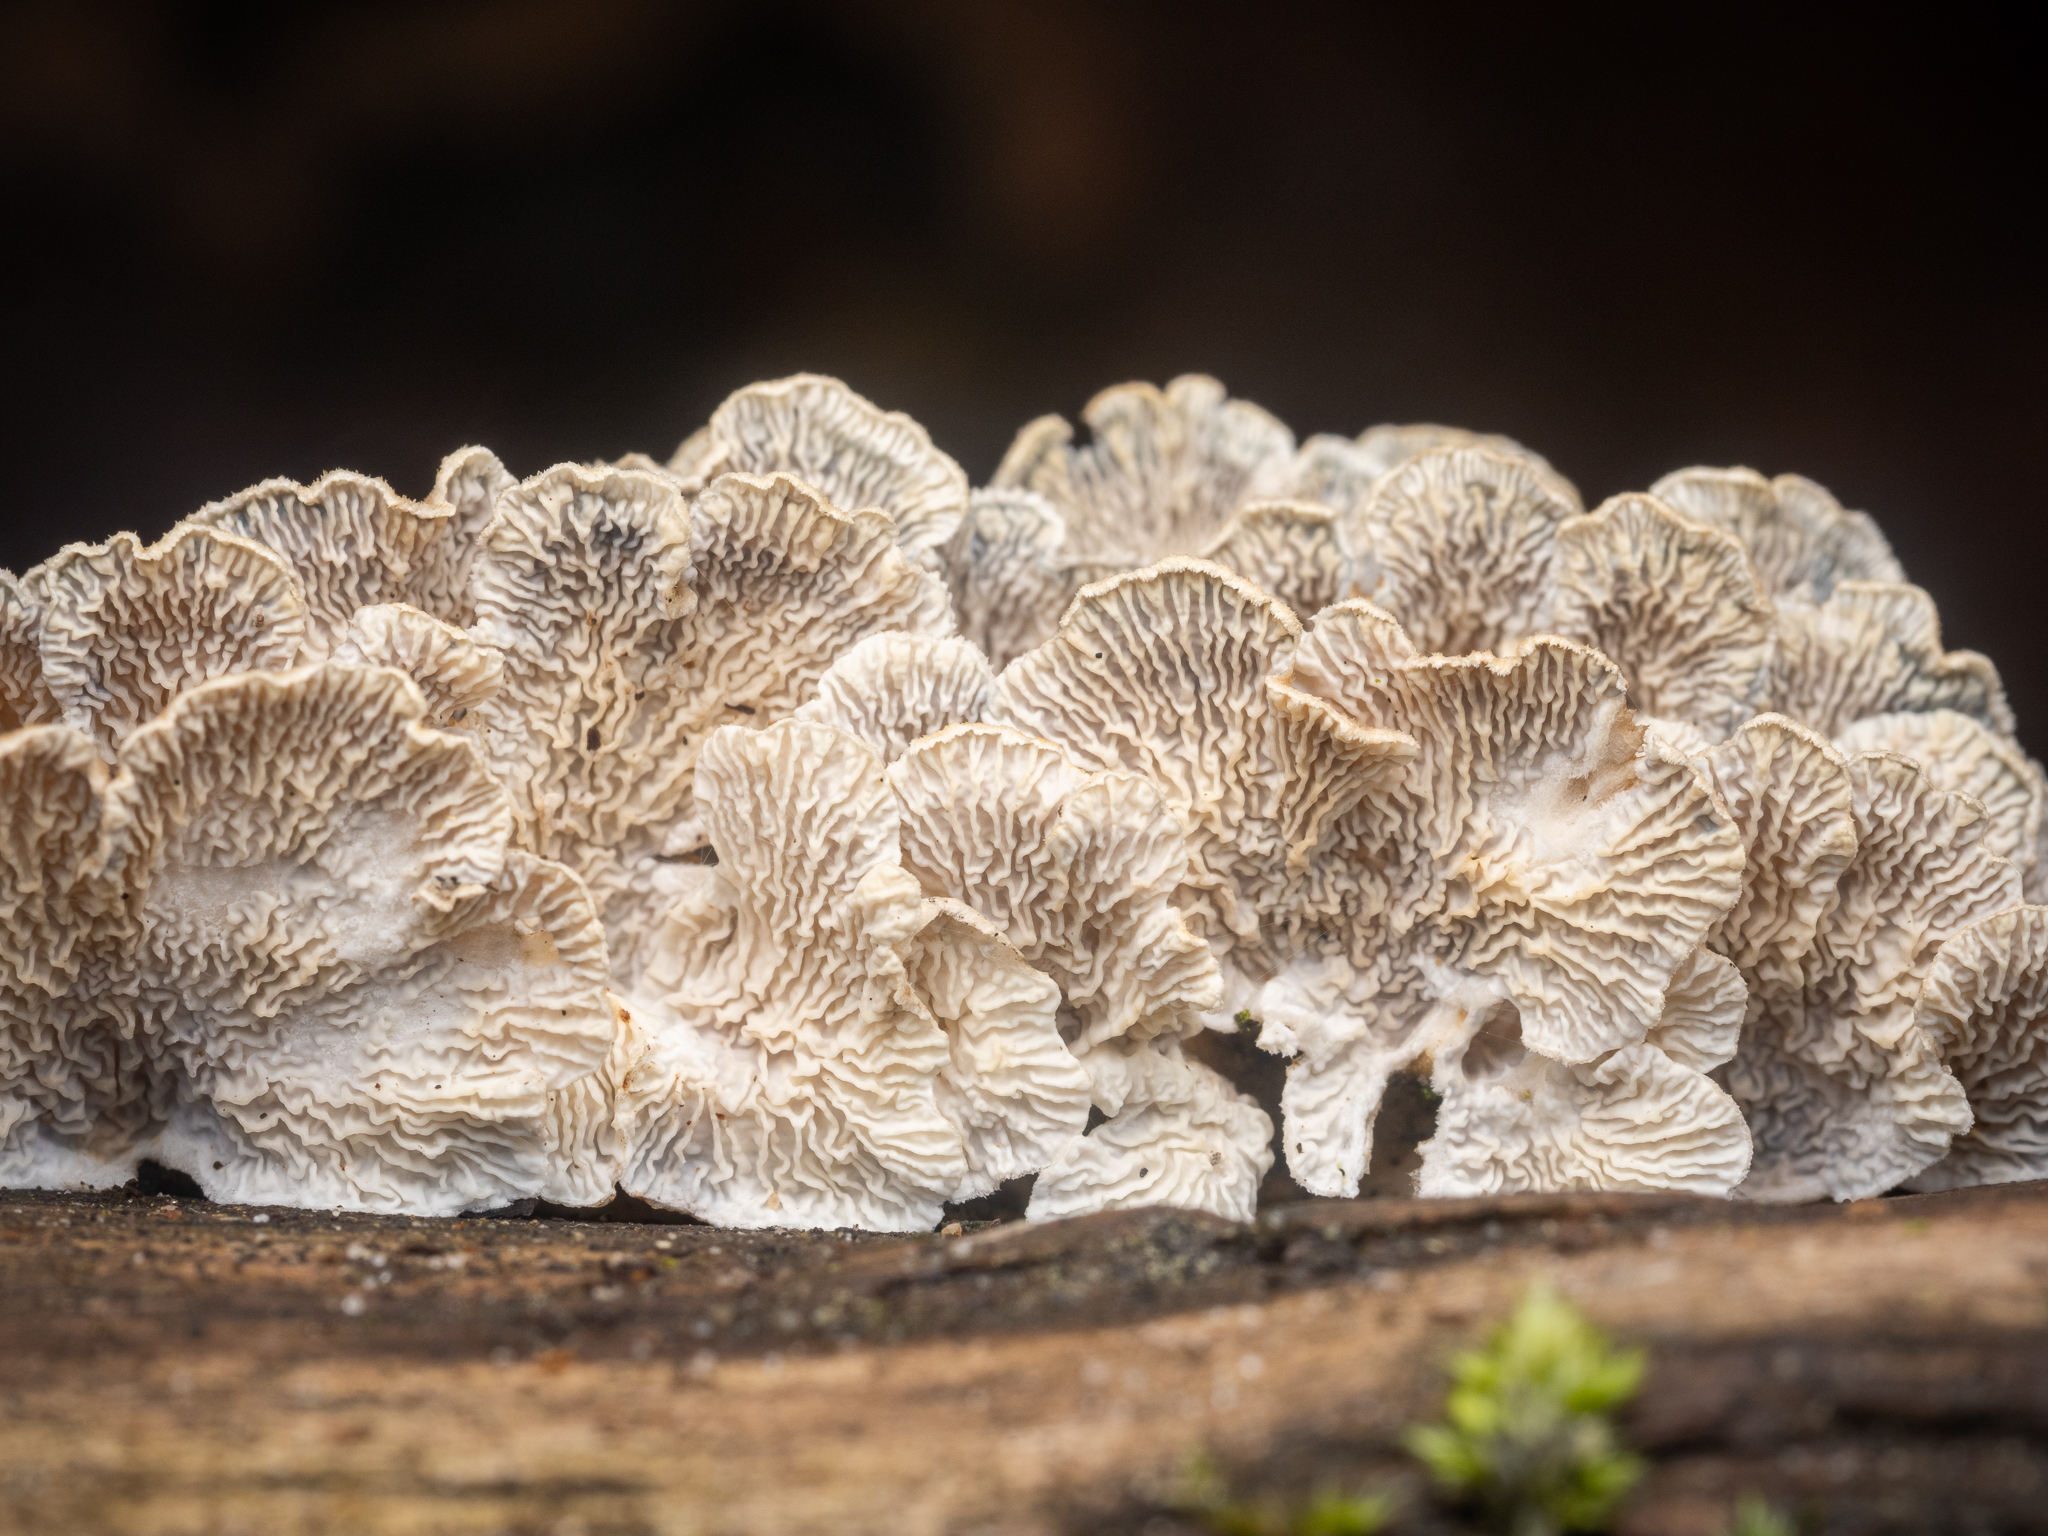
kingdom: Fungi
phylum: Basidiomycota
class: Agaricomycetes
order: Amylocorticiales
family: Amylocorticiaceae
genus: Plicaturopsis
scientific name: Plicaturopsis crispa
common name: Crimped gill
